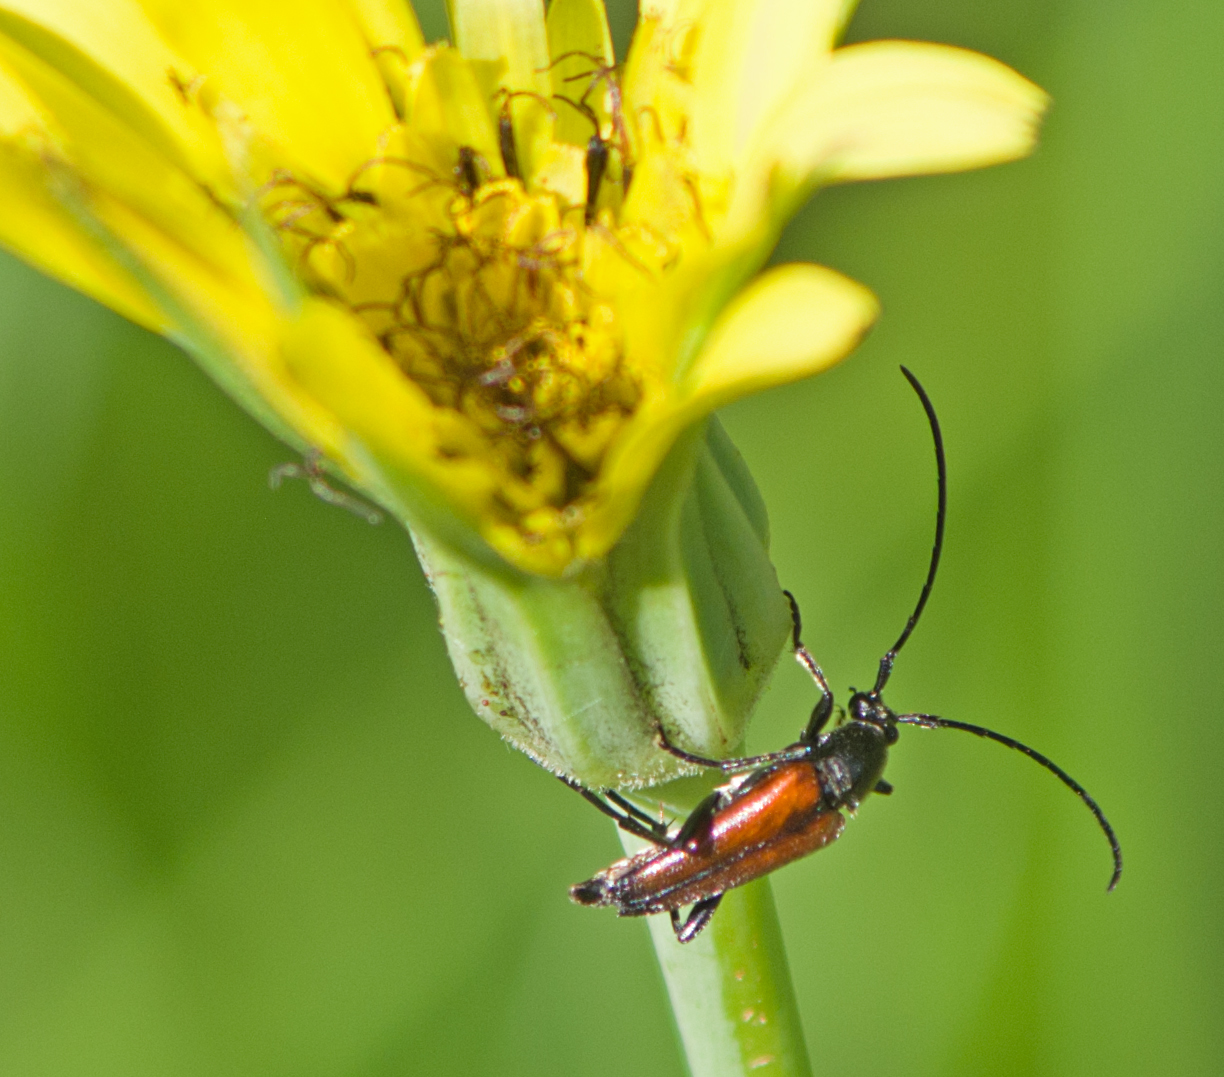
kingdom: Animalia
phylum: Arthropoda
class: Insecta
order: Coleoptera
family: Cerambycidae
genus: Stenurella
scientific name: Stenurella bifasciata
